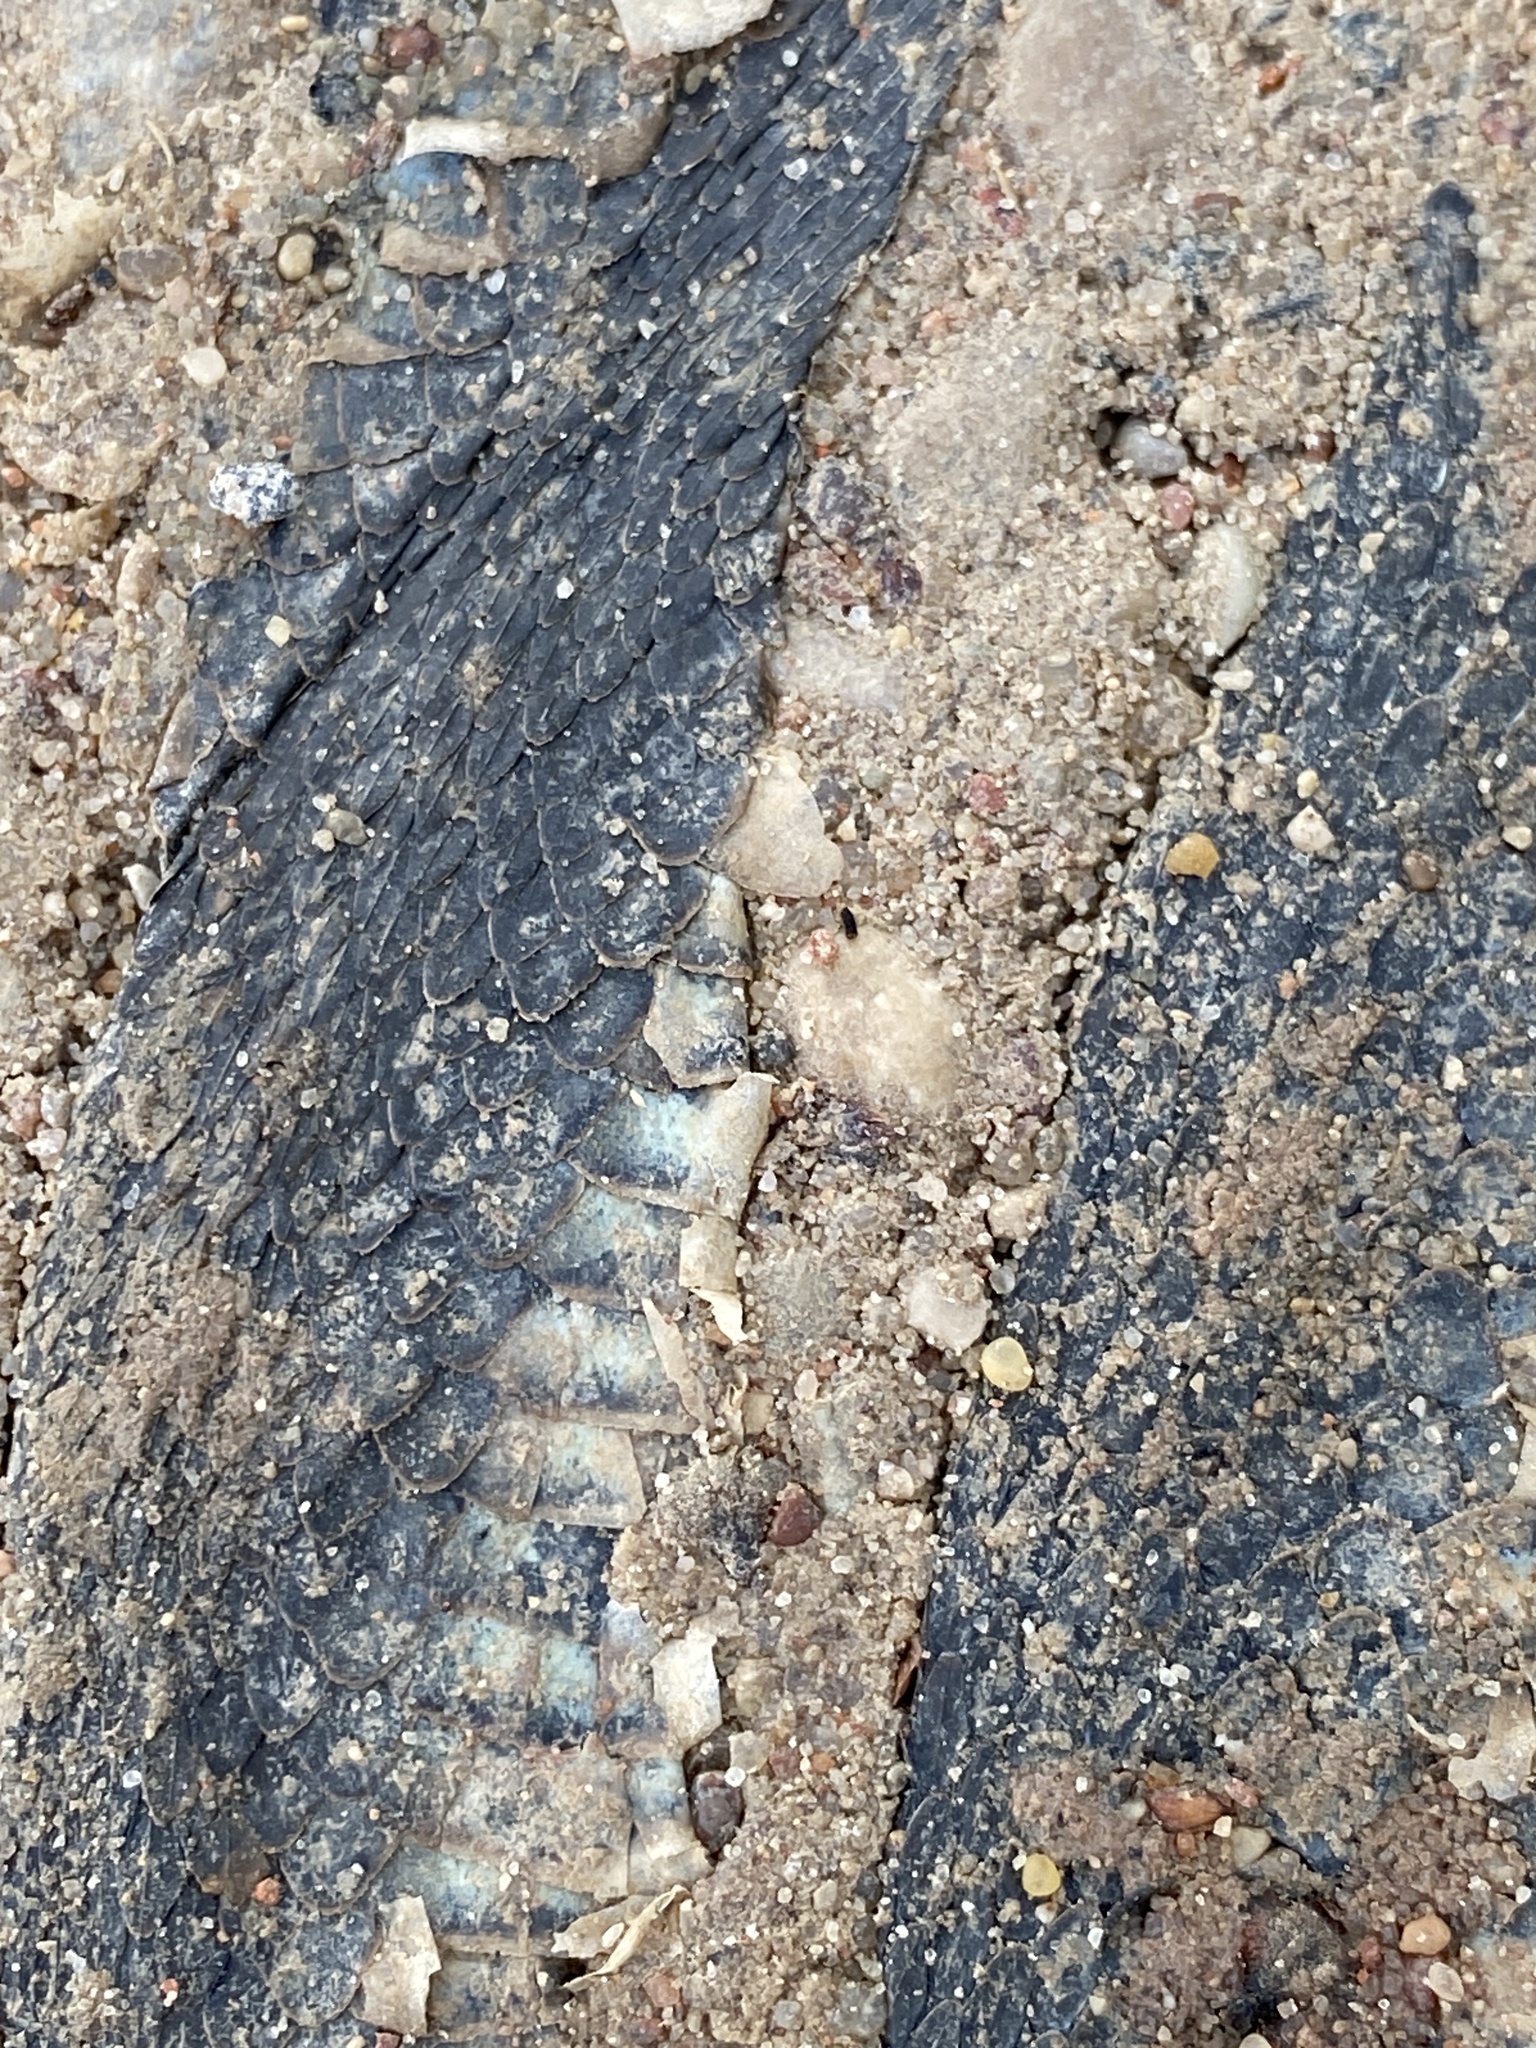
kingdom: Animalia
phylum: Chordata
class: Squamata
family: Colubridae
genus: Natrix
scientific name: Natrix natrix
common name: Grass snake
